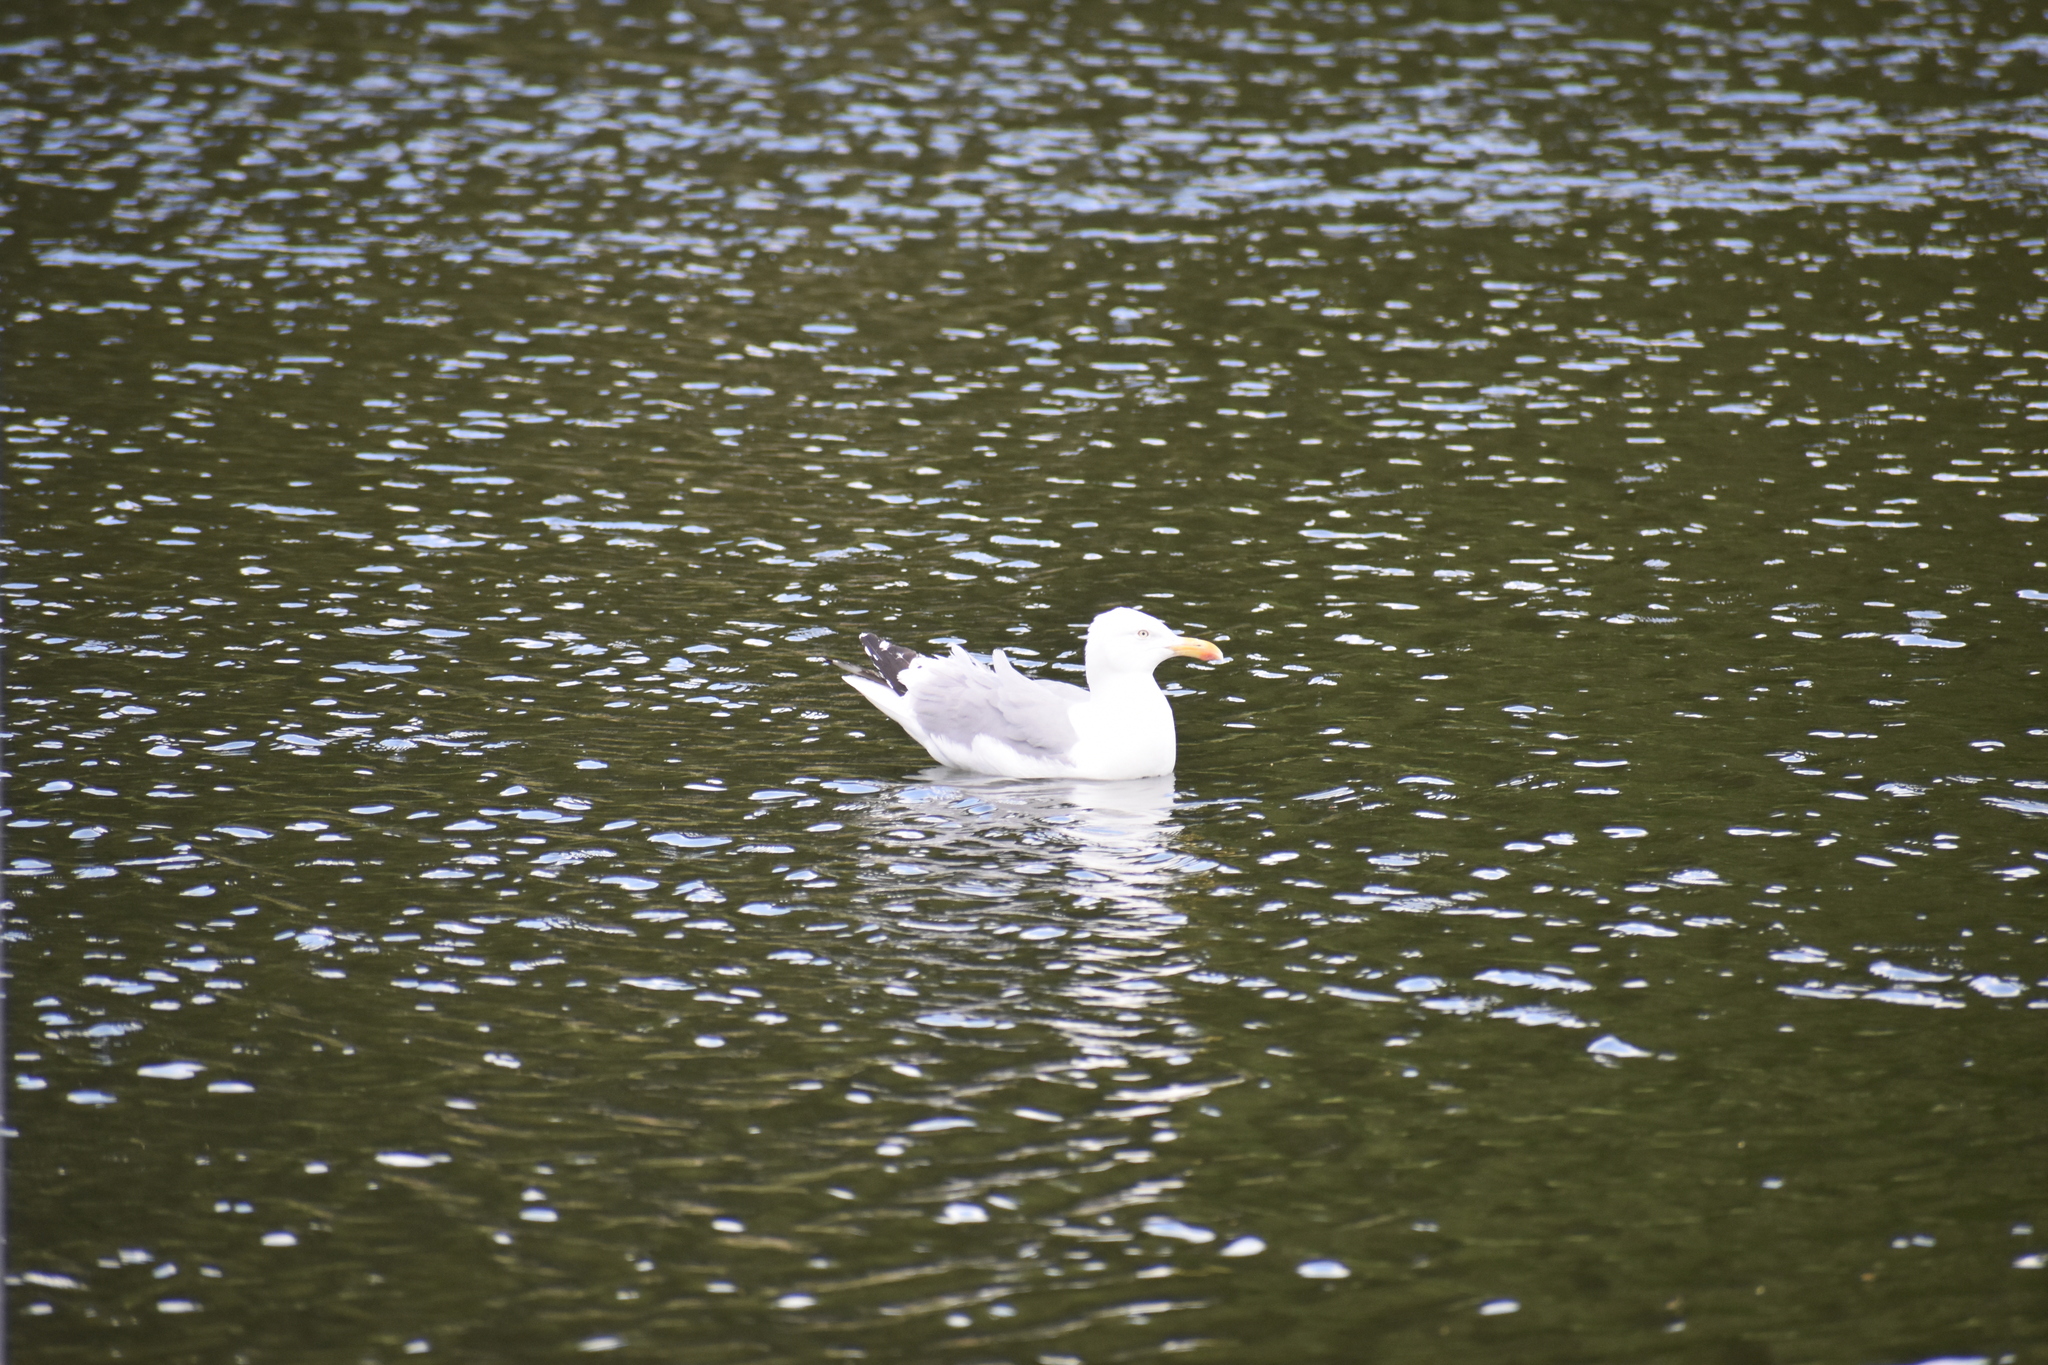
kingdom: Animalia
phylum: Chordata
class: Aves
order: Charadriiformes
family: Laridae
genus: Larus
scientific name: Larus argentatus
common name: Herring gull
